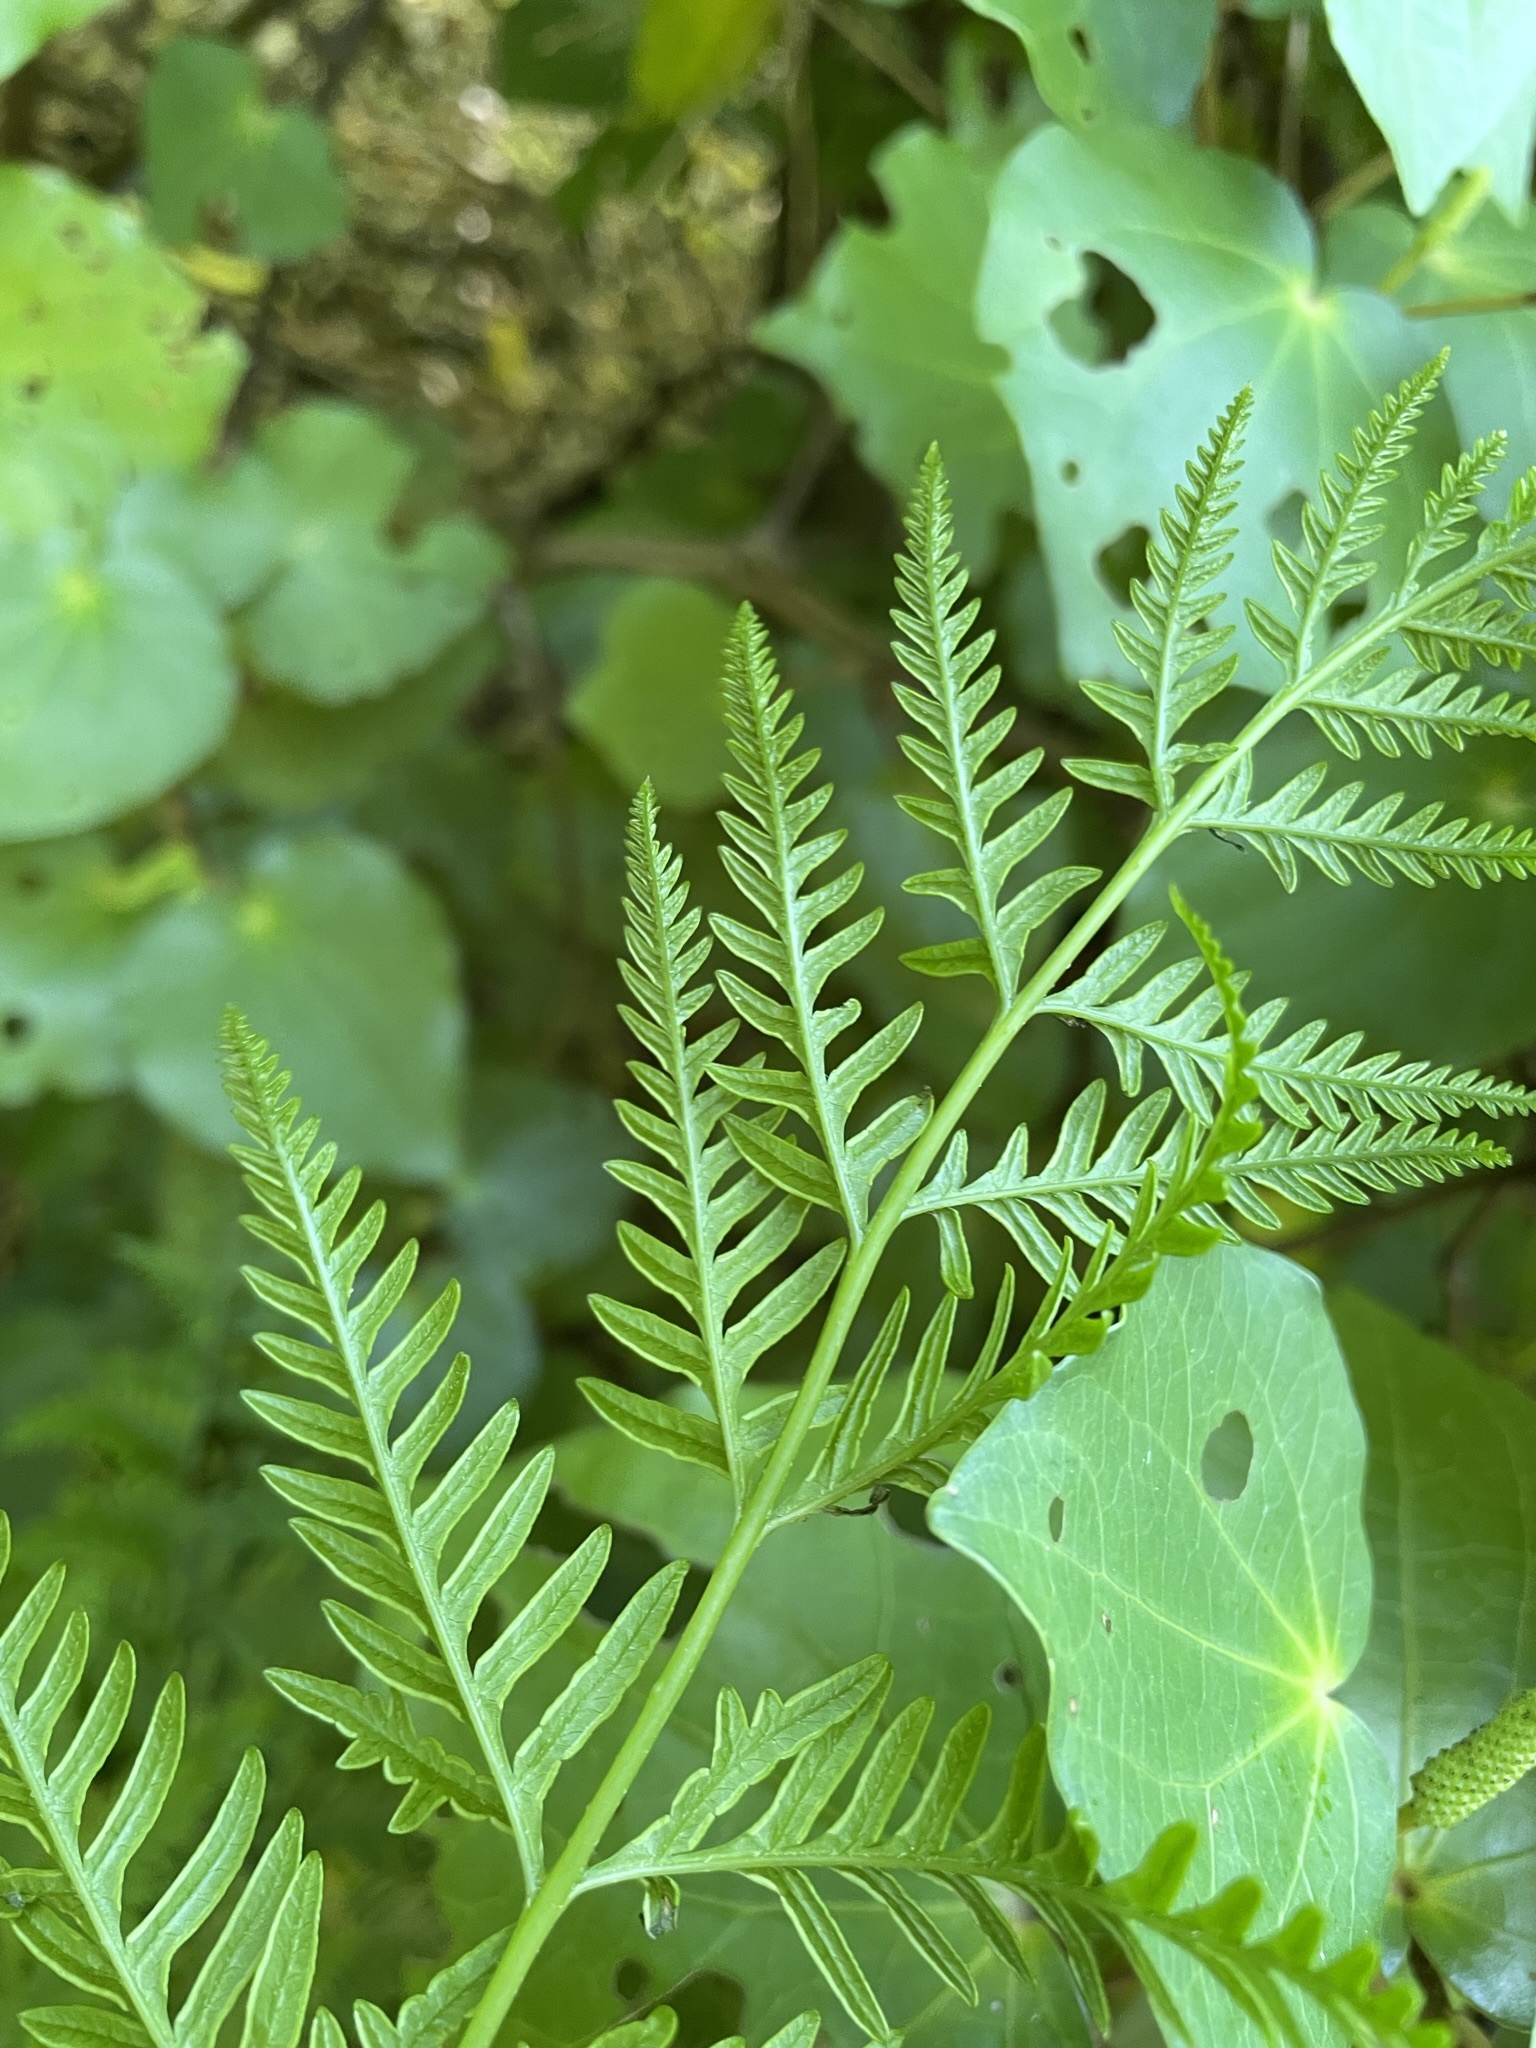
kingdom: Plantae
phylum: Tracheophyta
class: Polypodiopsida
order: Polypodiales
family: Pteridaceae
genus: Pteris
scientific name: Pteris tremula
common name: Australian brake
